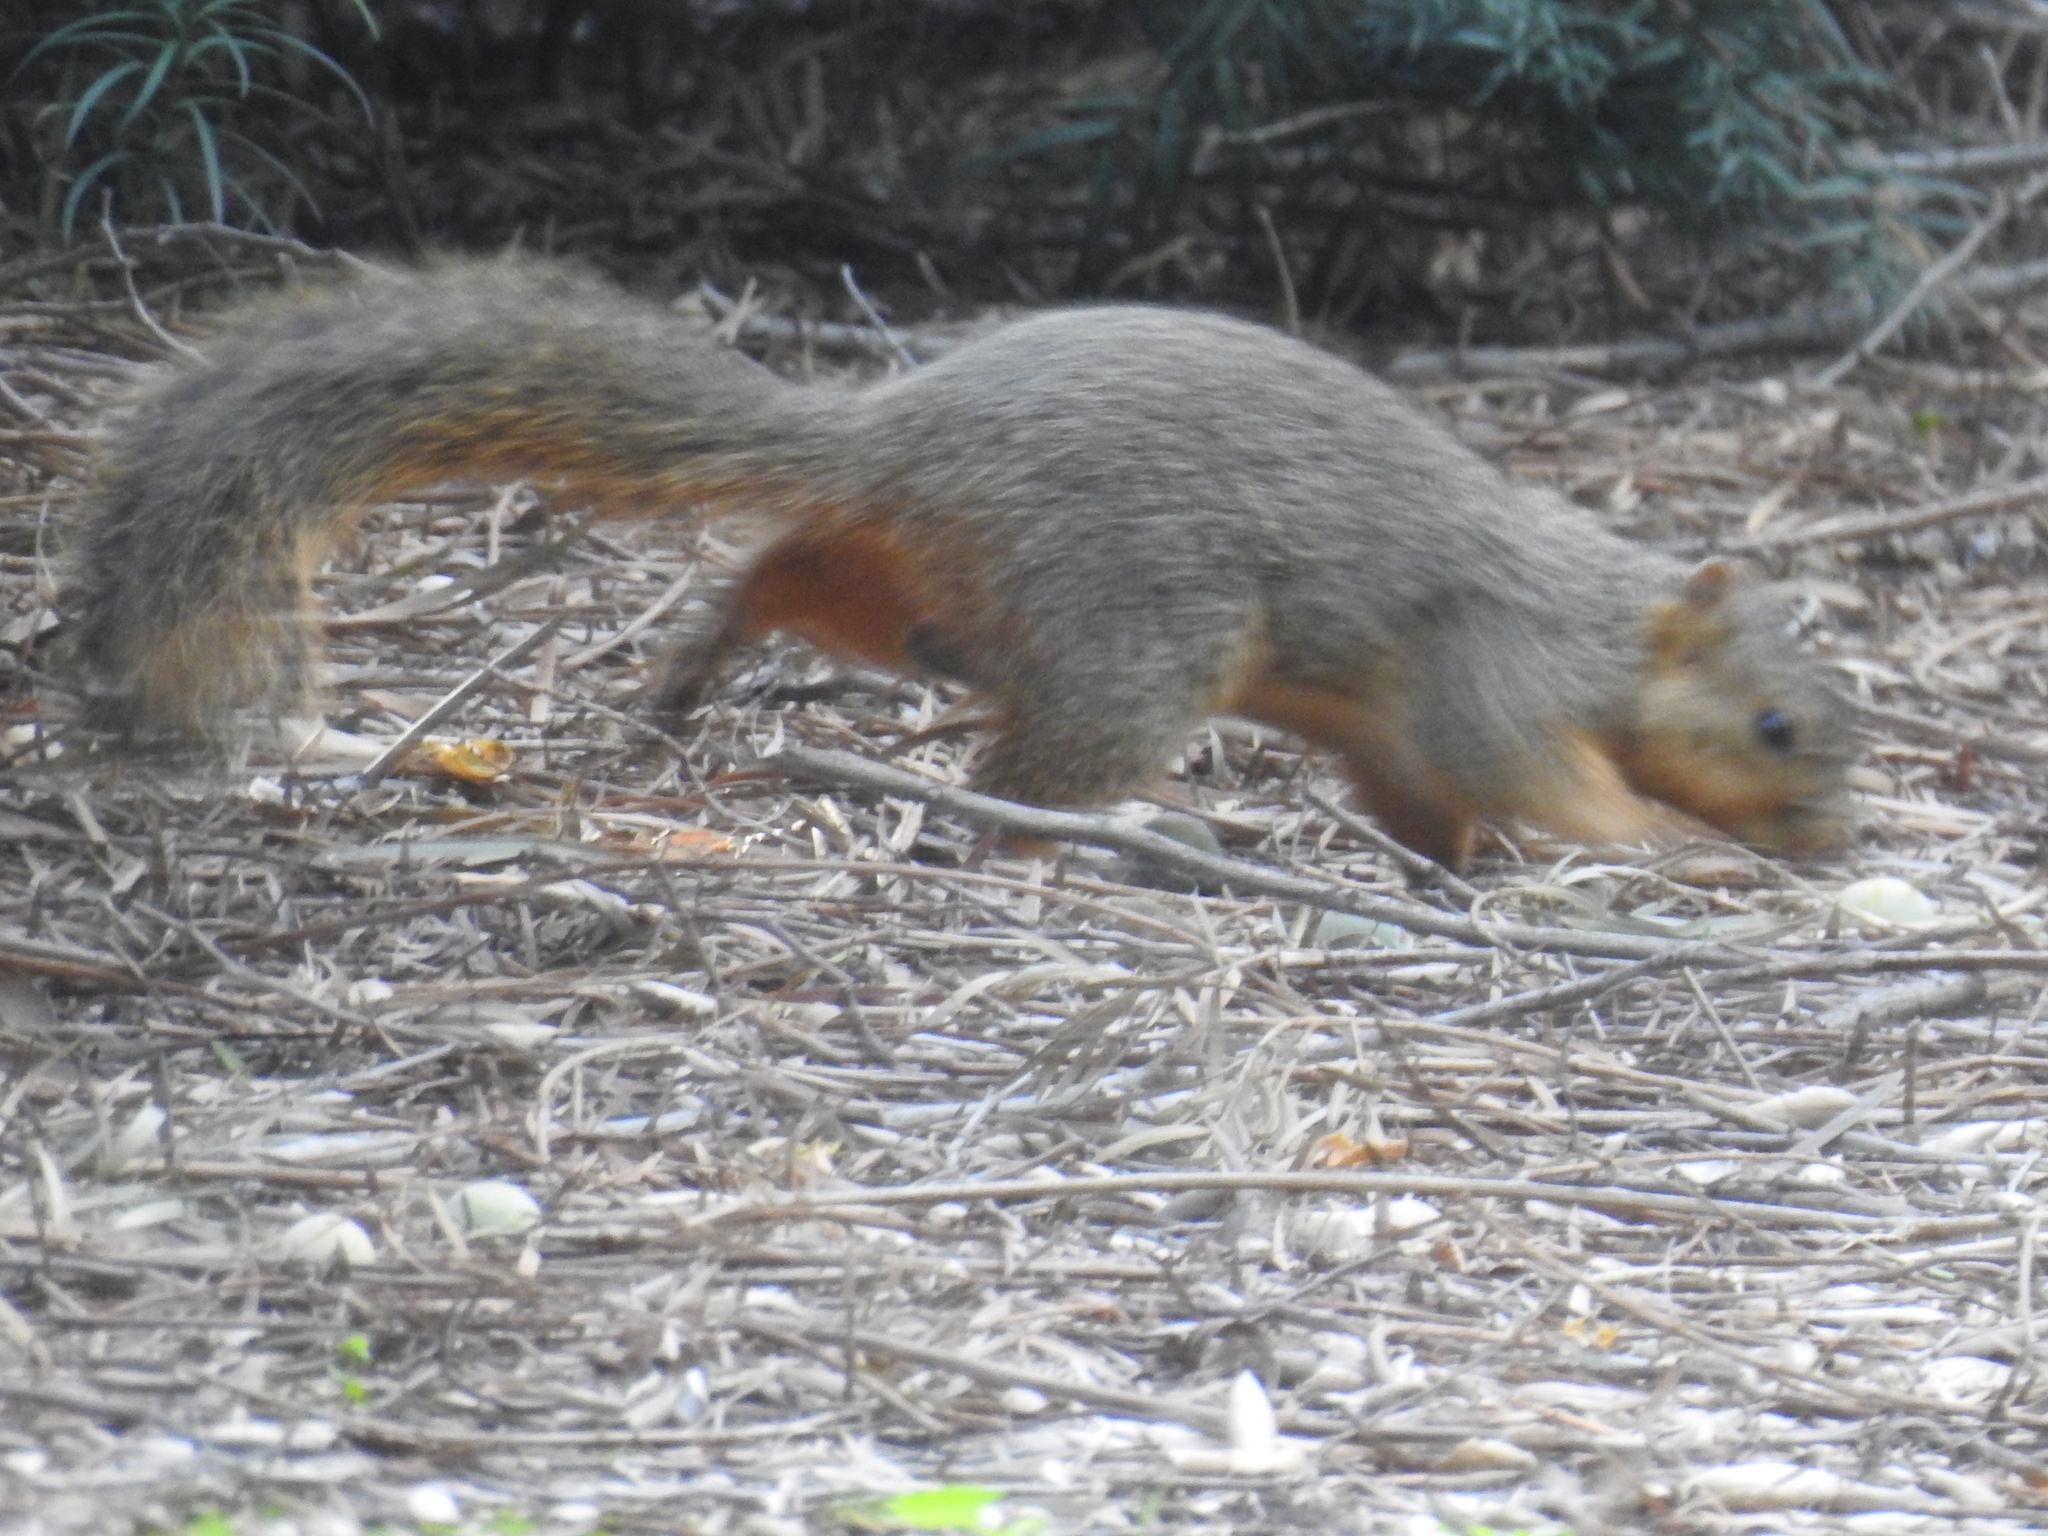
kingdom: Animalia
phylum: Chordata
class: Mammalia
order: Rodentia
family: Sciuridae
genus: Sciurus
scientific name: Sciurus niger
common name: Fox squirrel
